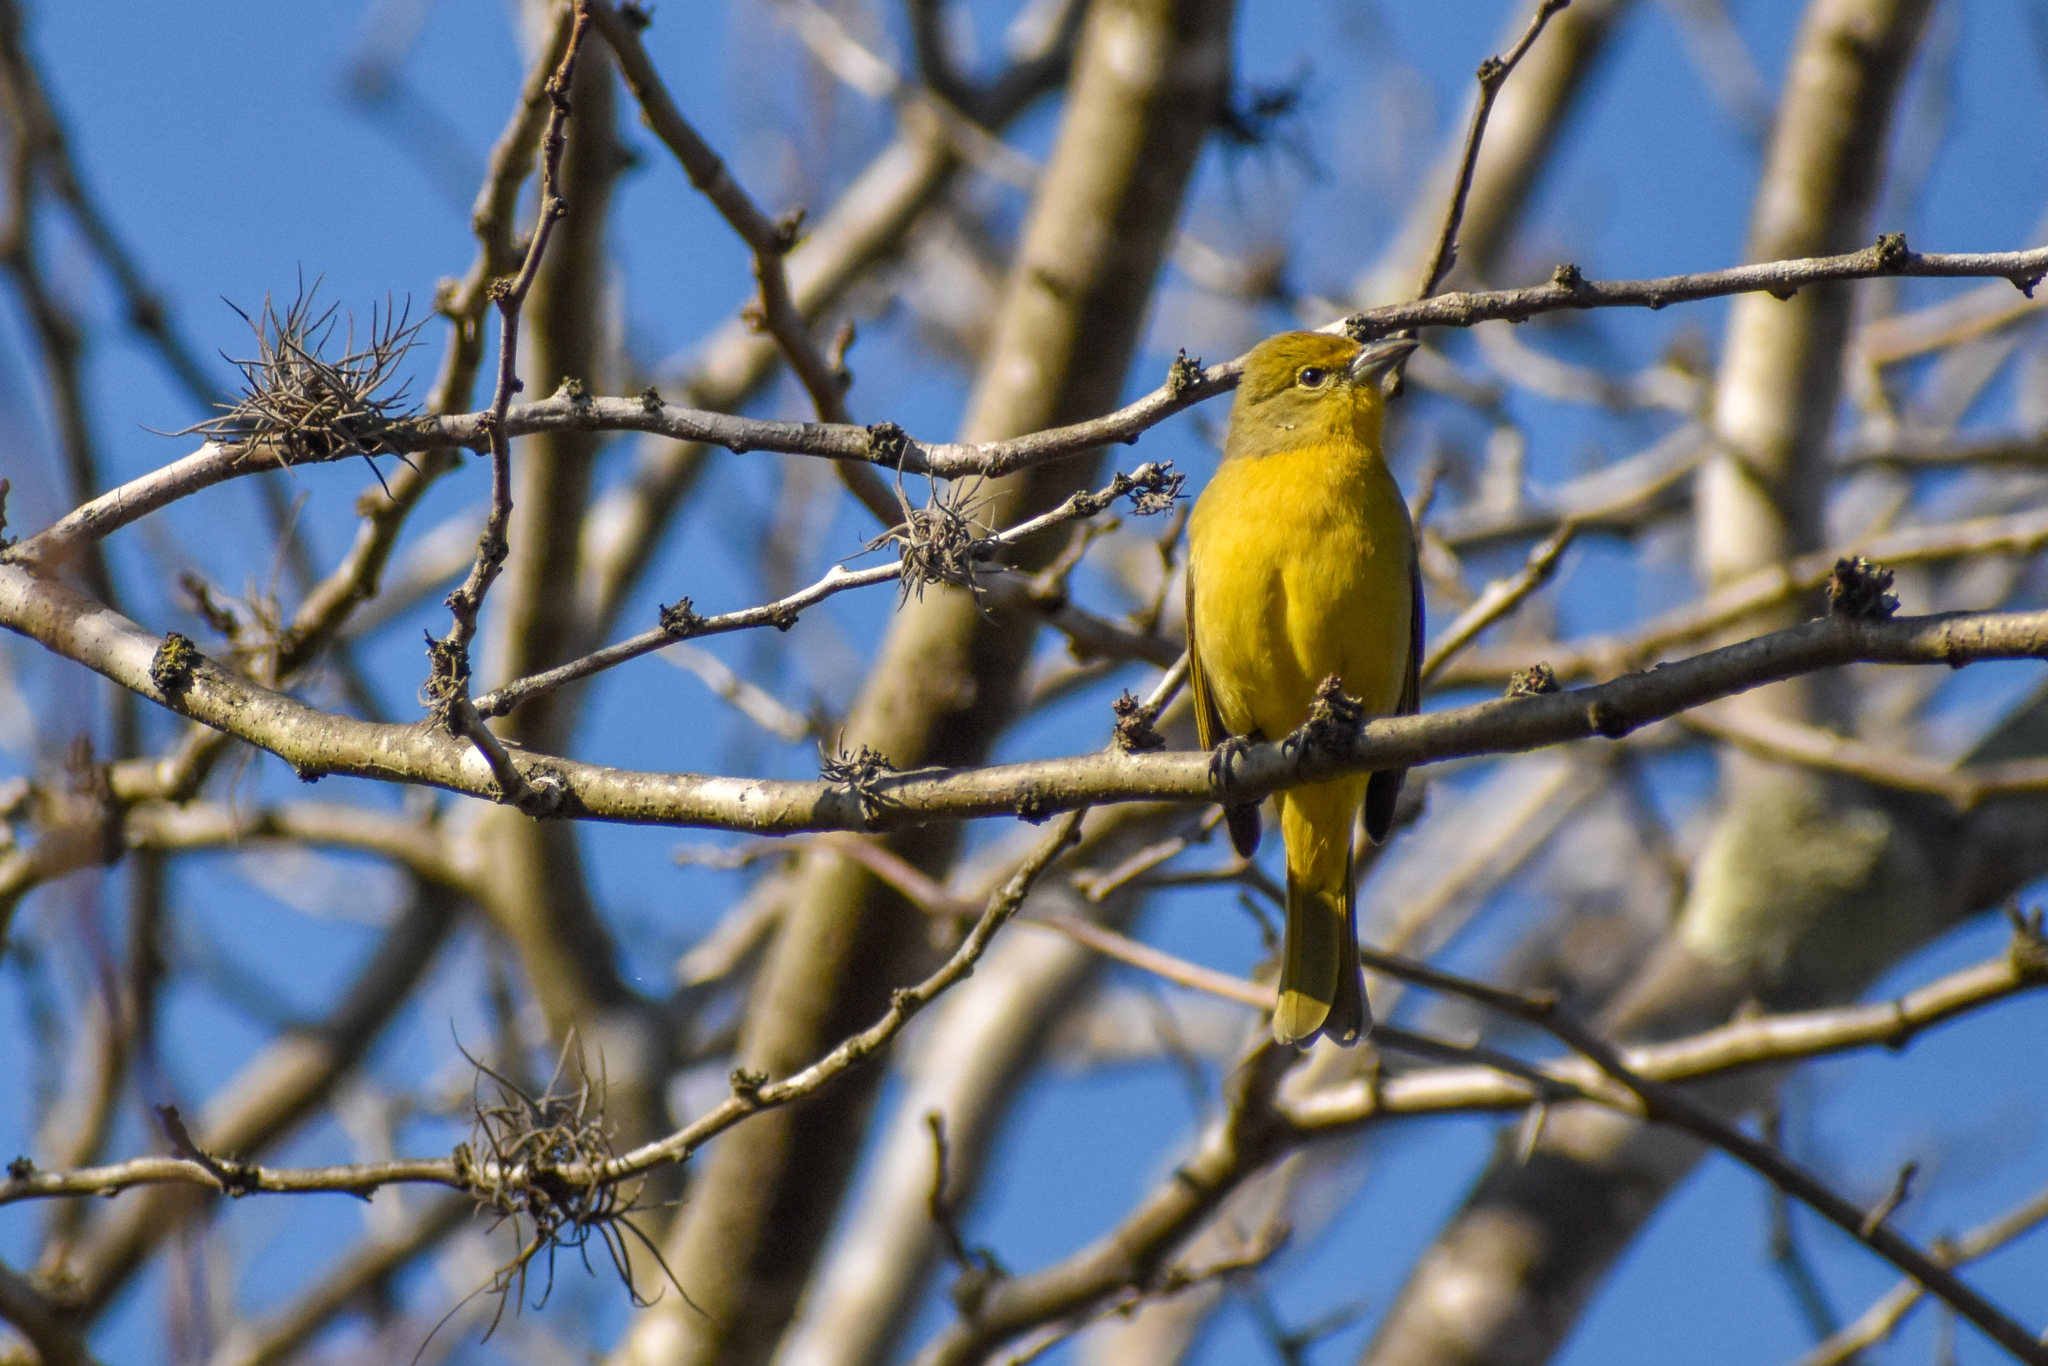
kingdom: Animalia
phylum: Chordata
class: Aves
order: Passeriformes
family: Cardinalidae
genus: Piranga
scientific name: Piranga flava
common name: Red tanager
